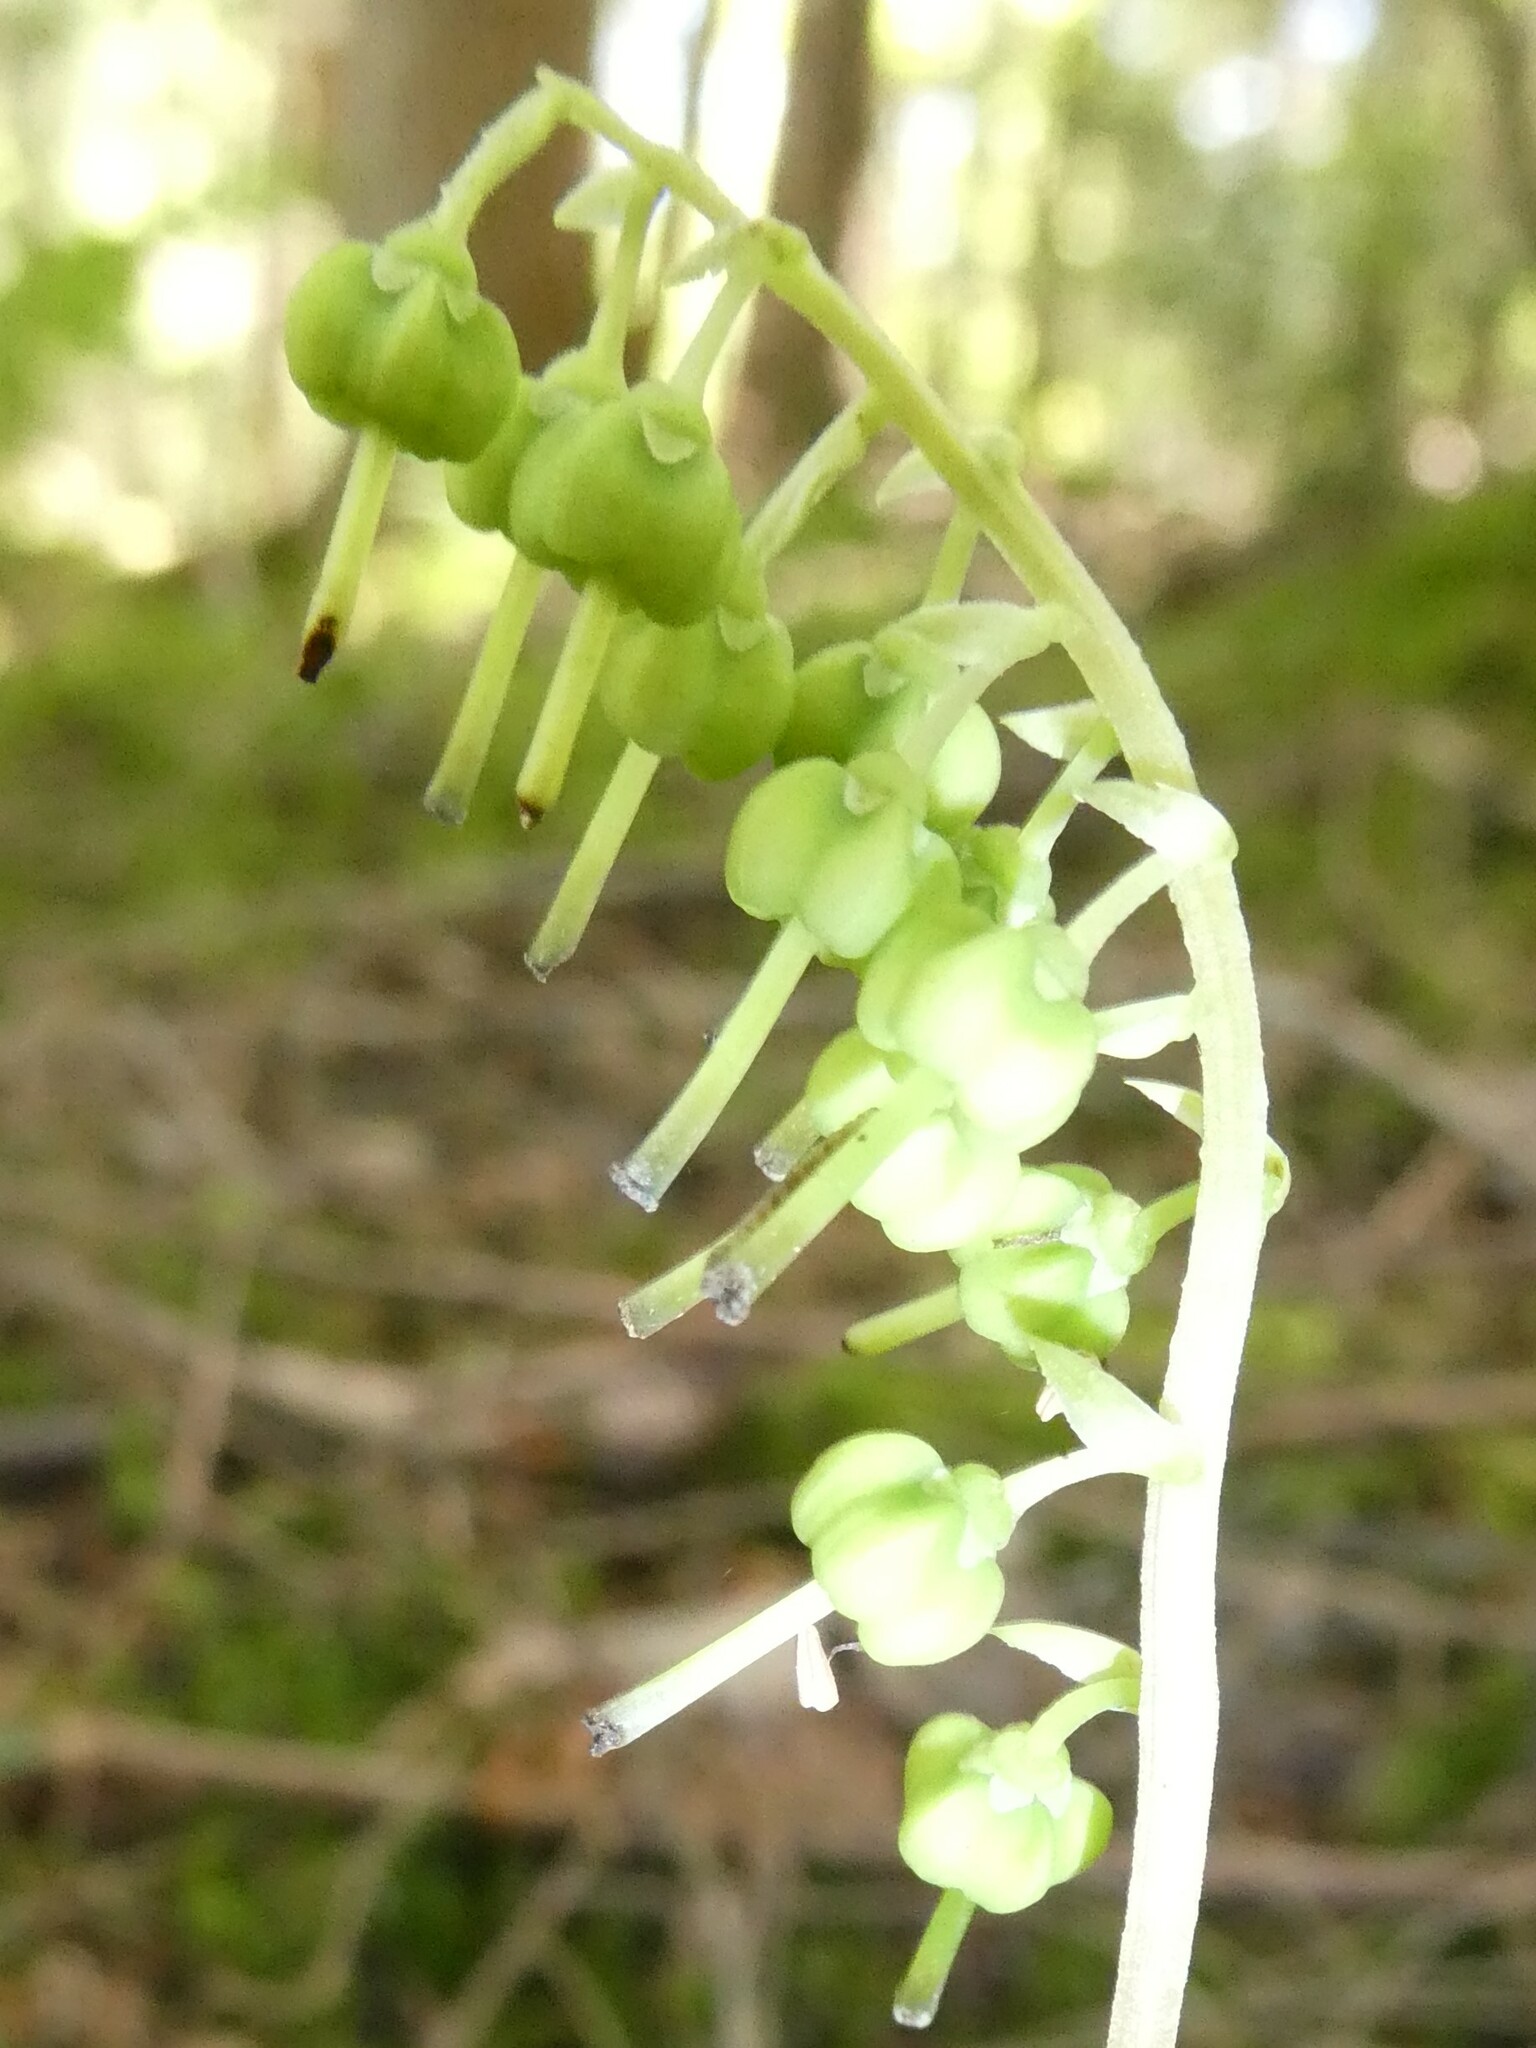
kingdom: Plantae
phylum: Tracheophyta
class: Magnoliopsida
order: Ericales
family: Ericaceae
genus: Orthilia
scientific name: Orthilia secunda
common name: One-sided orthilia
